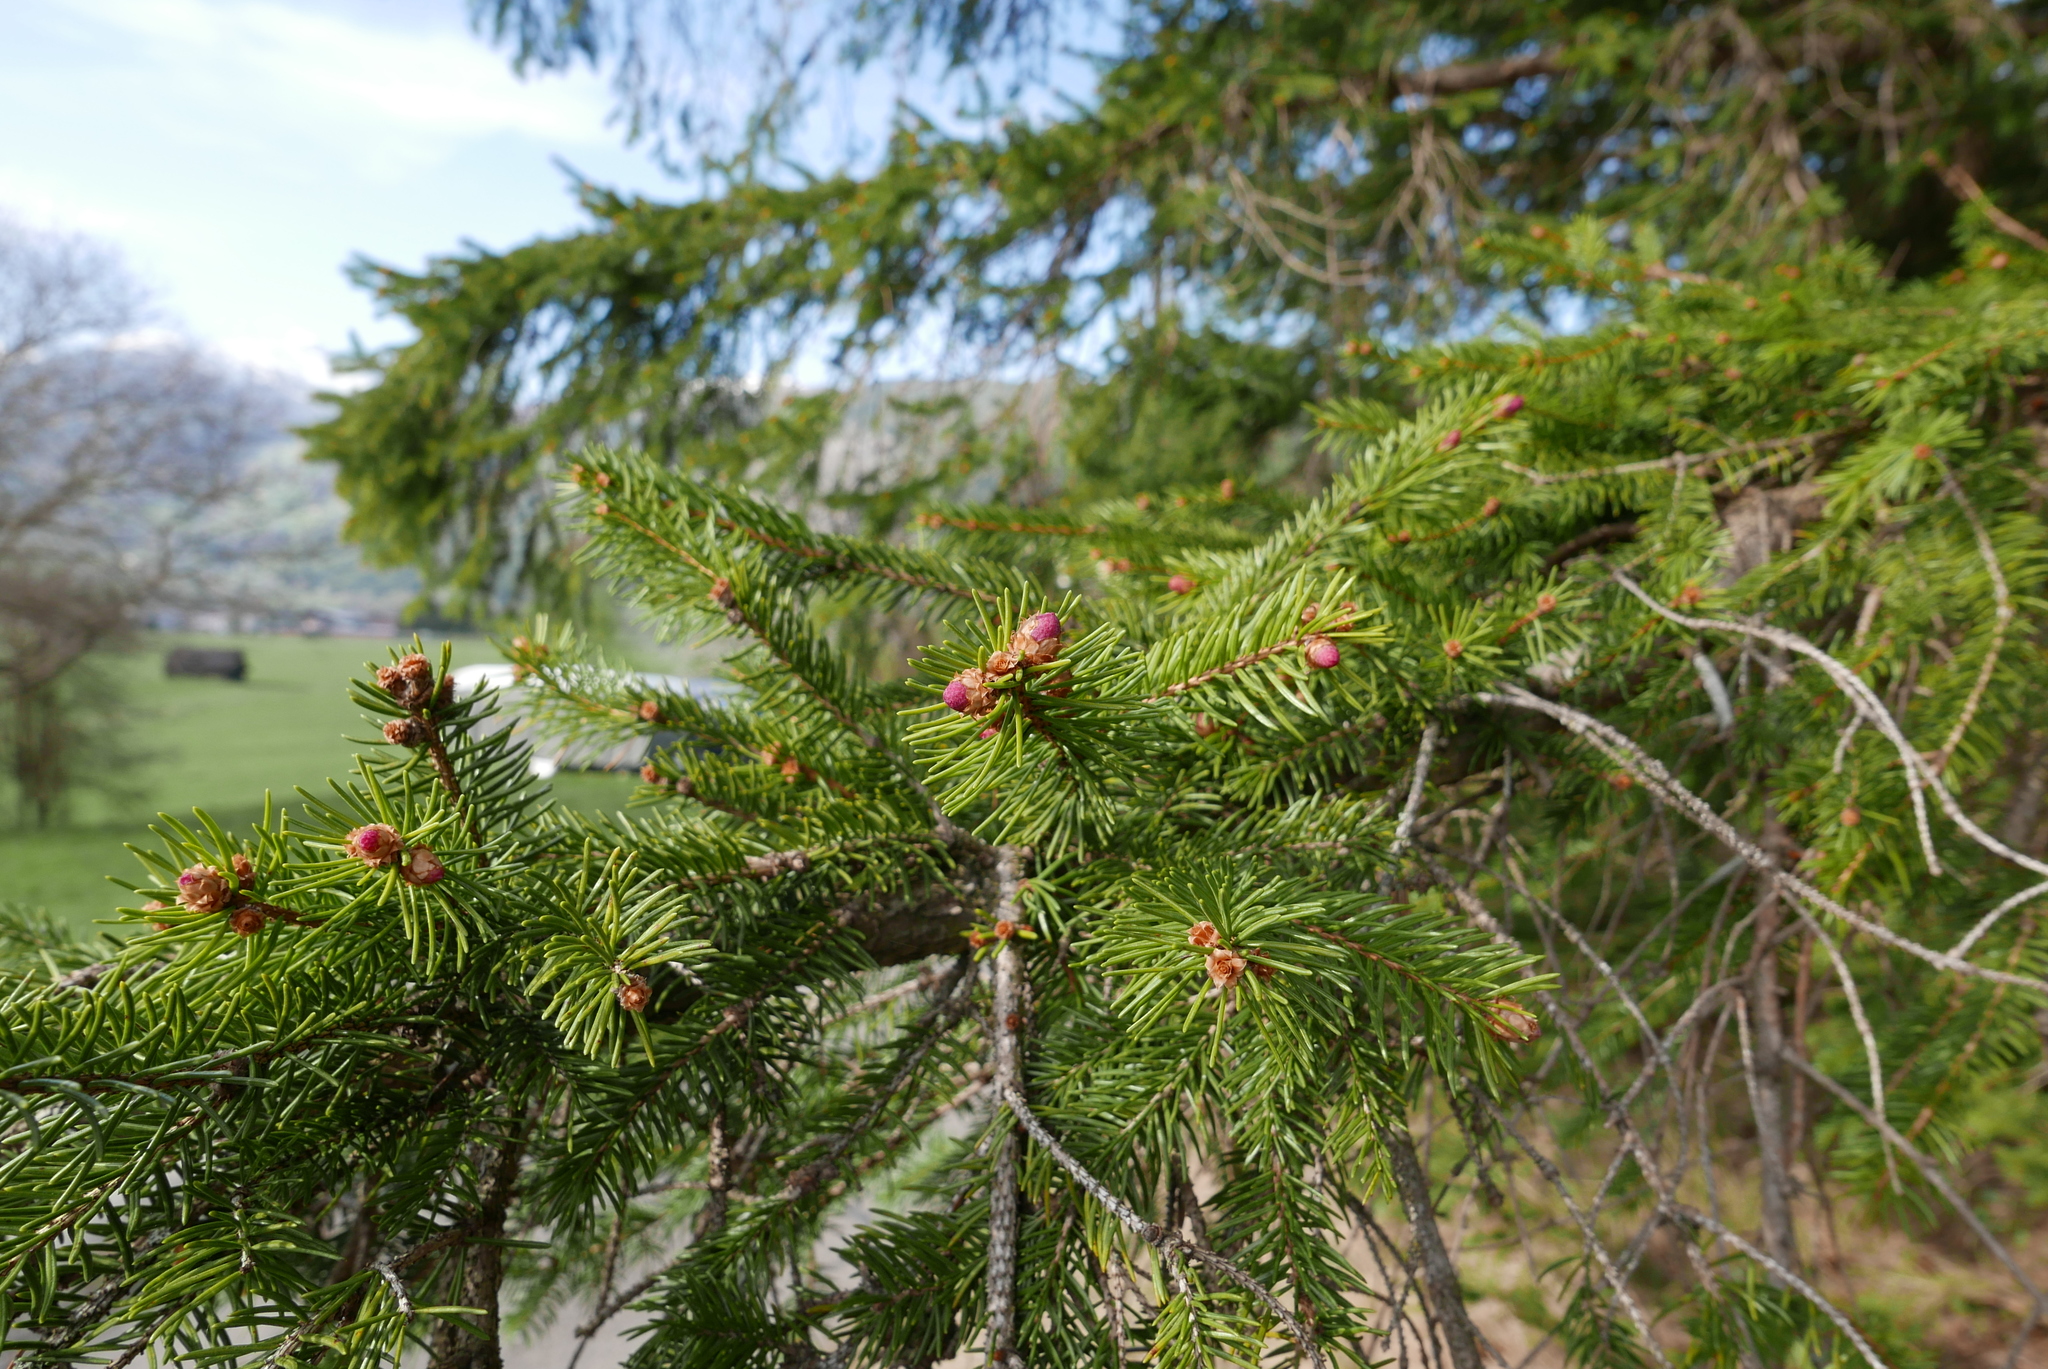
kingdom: Plantae
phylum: Tracheophyta
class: Pinopsida
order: Pinales
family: Pinaceae
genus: Picea
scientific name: Picea abies
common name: Norway spruce
